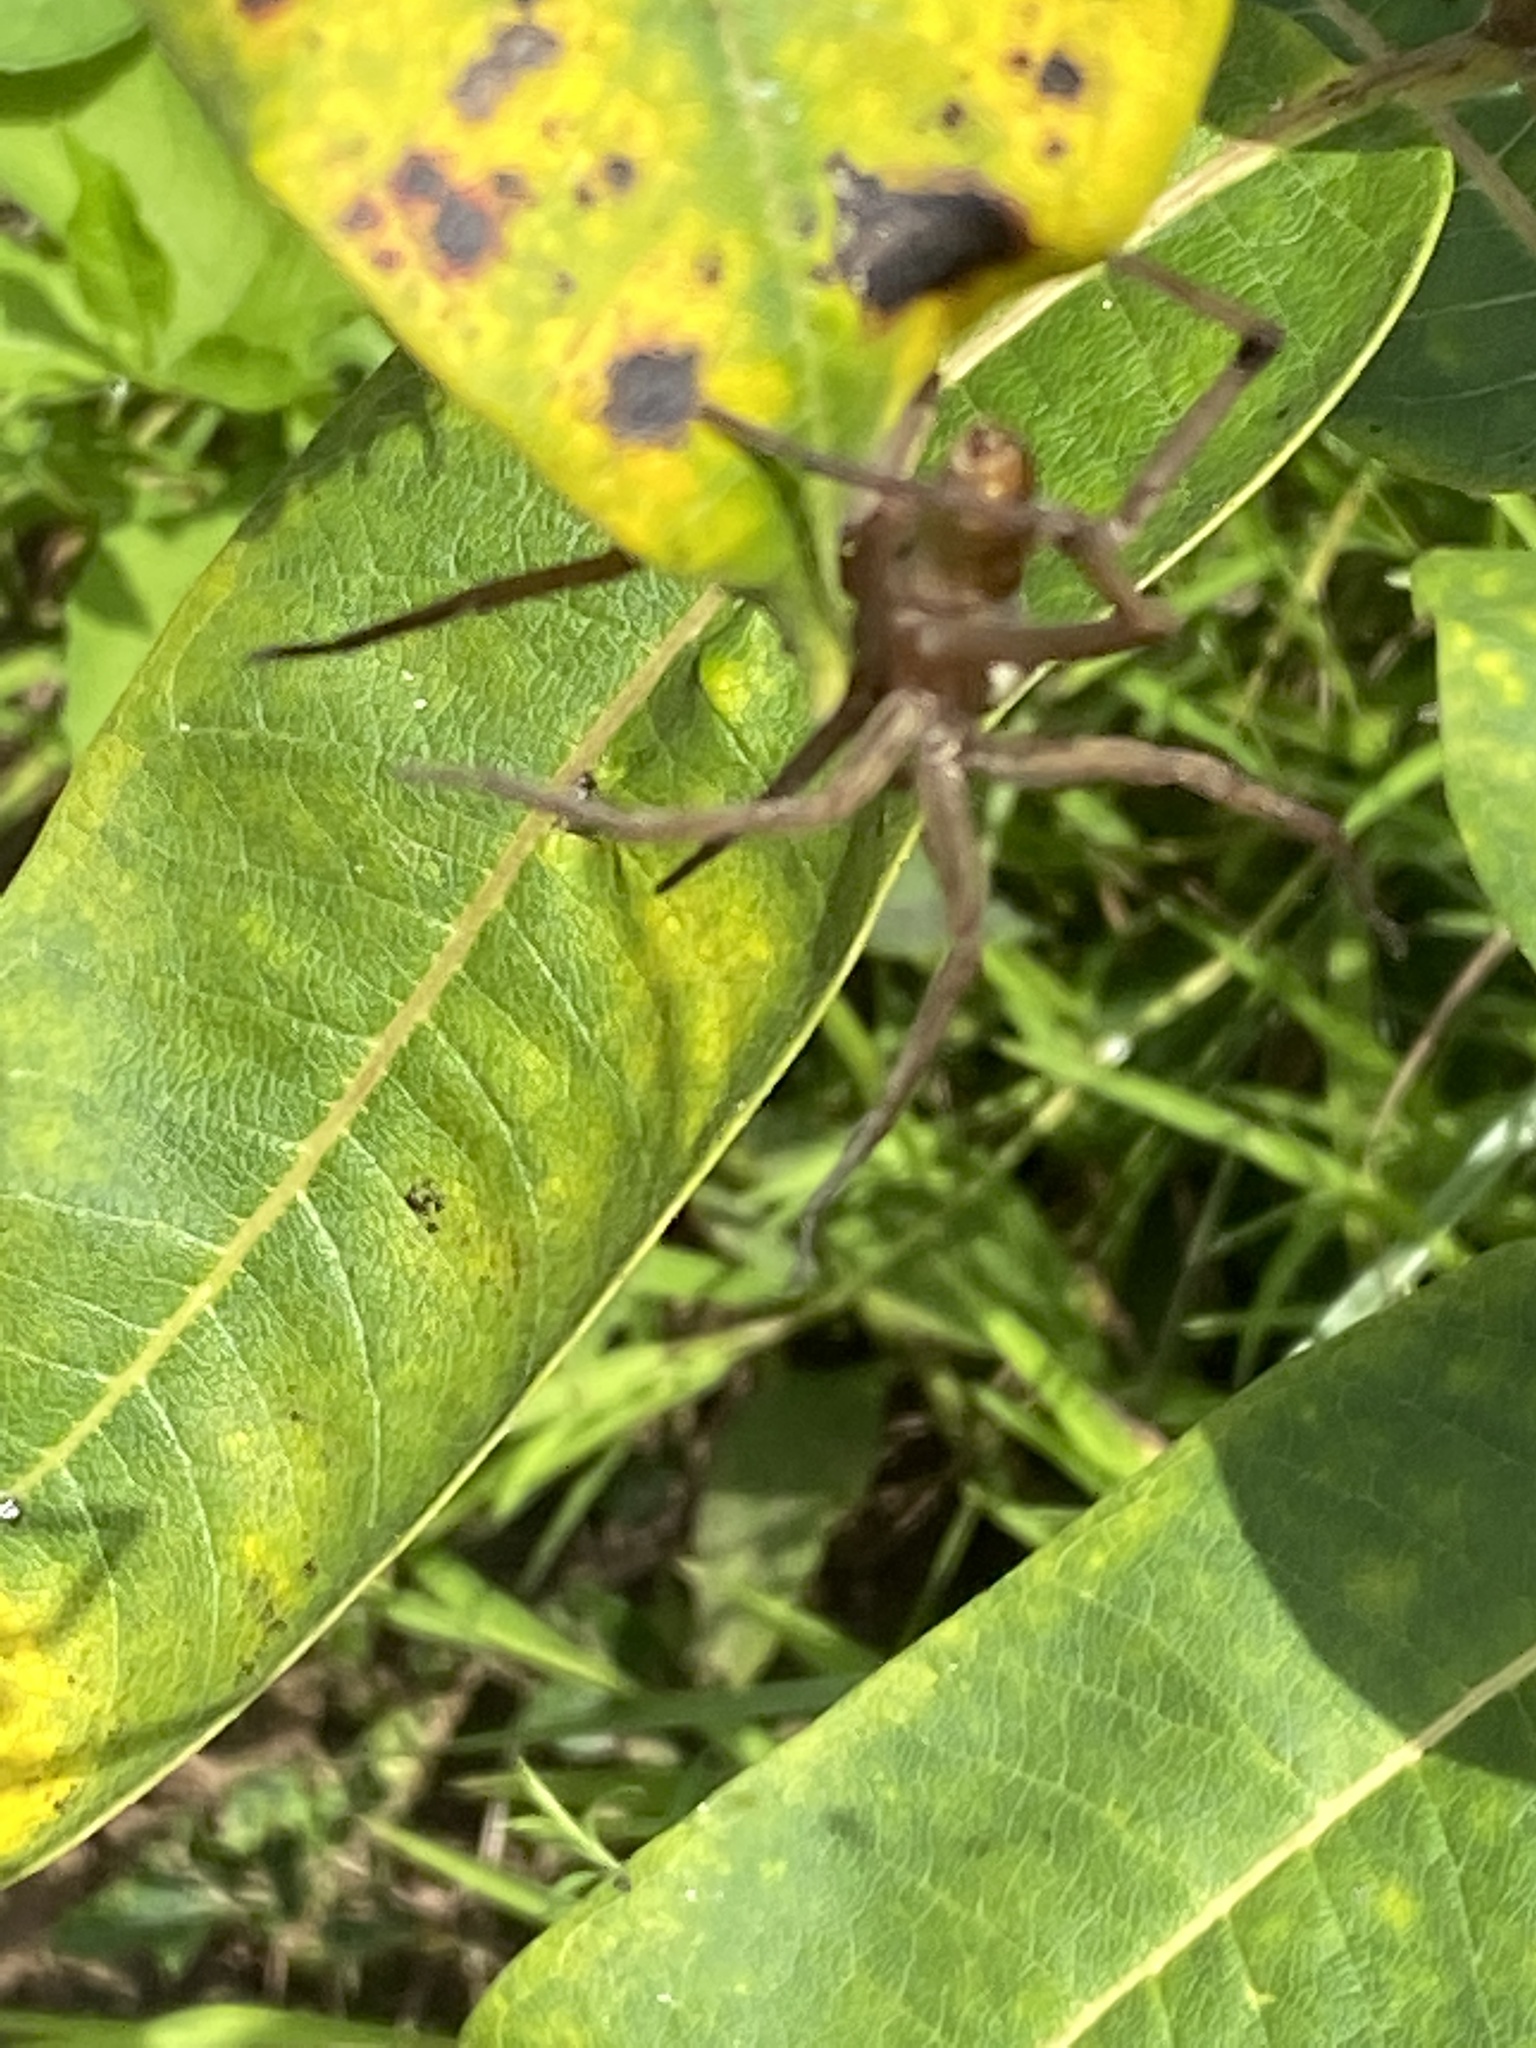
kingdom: Animalia
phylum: Arthropoda
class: Arachnida
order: Araneae
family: Lycosidae
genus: Rabidosa
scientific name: Rabidosa
